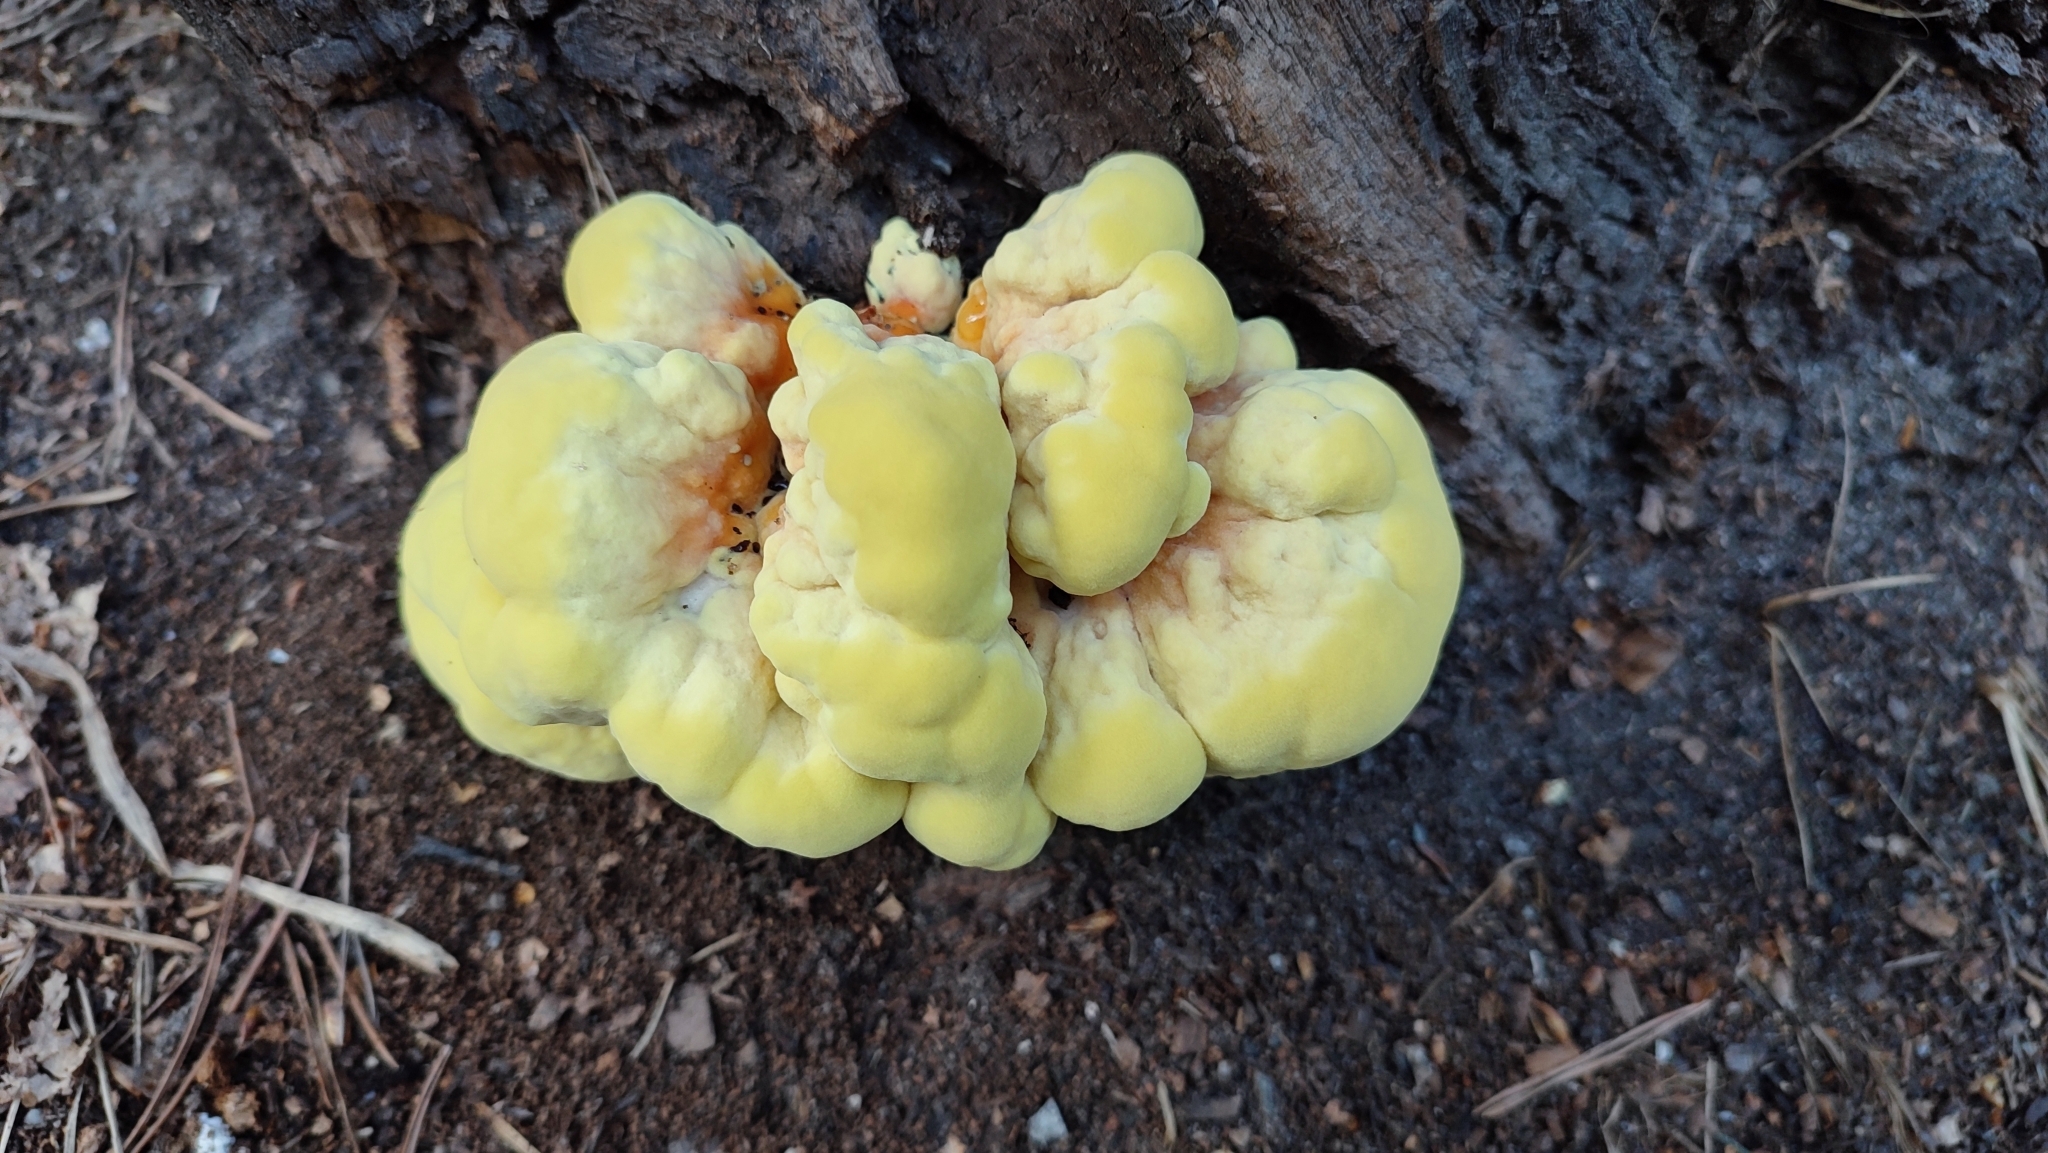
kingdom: Fungi
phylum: Basidiomycota
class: Agaricomycetes
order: Polyporales
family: Laetiporaceae
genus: Laetiporus
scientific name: Laetiporus sulphureus
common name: Chicken of the woods
